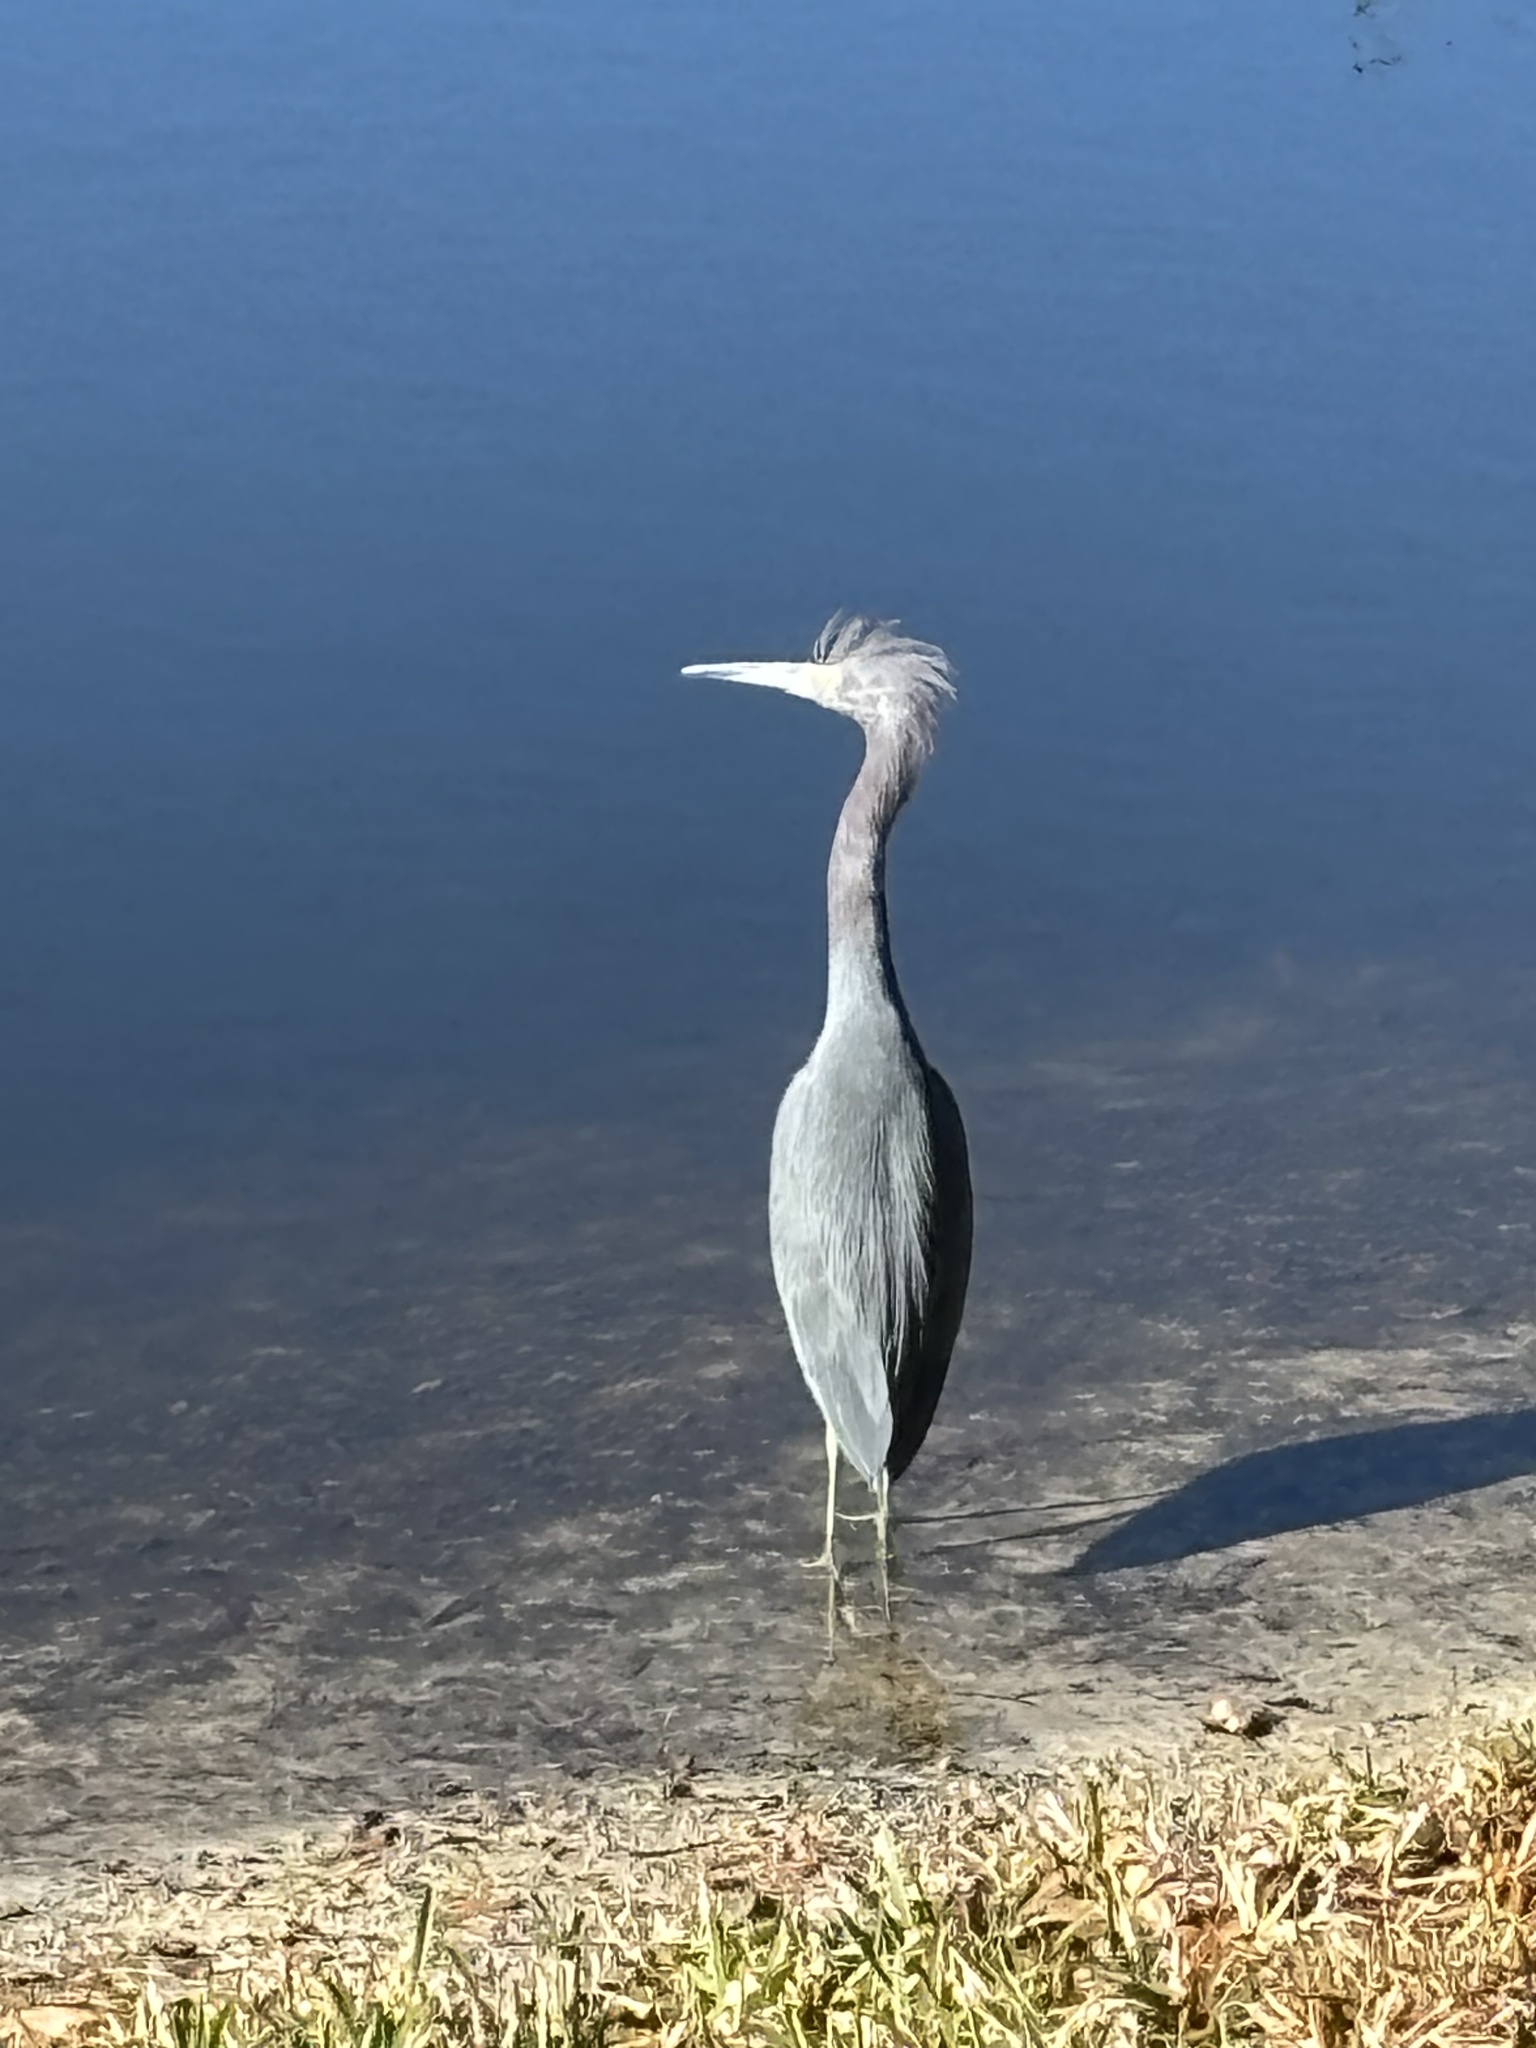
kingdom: Animalia
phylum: Chordata
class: Aves
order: Pelecaniformes
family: Ardeidae
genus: Egretta
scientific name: Egretta caerulea
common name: Little blue heron
